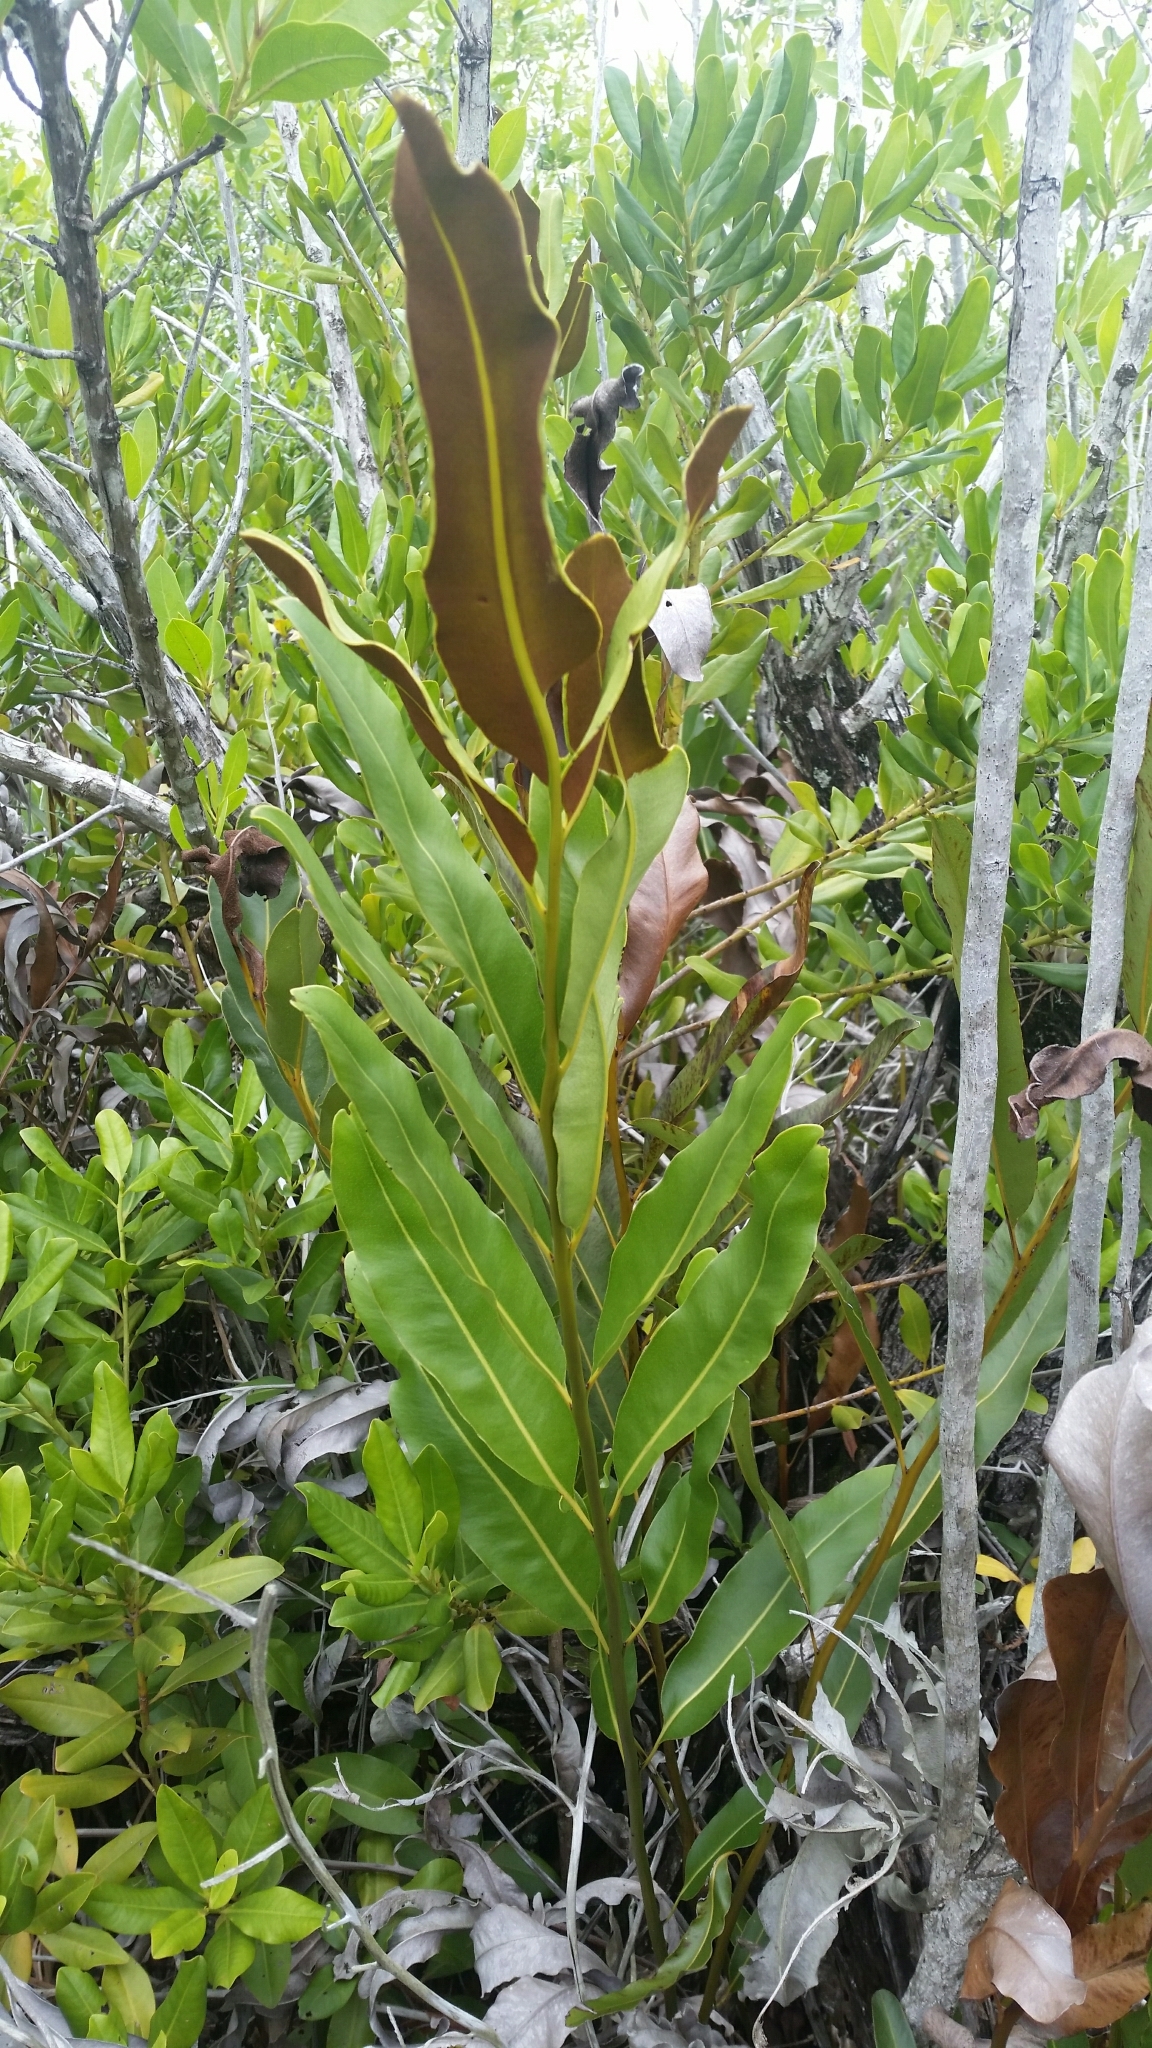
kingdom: Plantae
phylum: Tracheophyta
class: Polypodiopsida
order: Polypodiales
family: Pteridaceae
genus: Acrostichum
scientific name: Acrostichum aureum
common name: Leather fern
